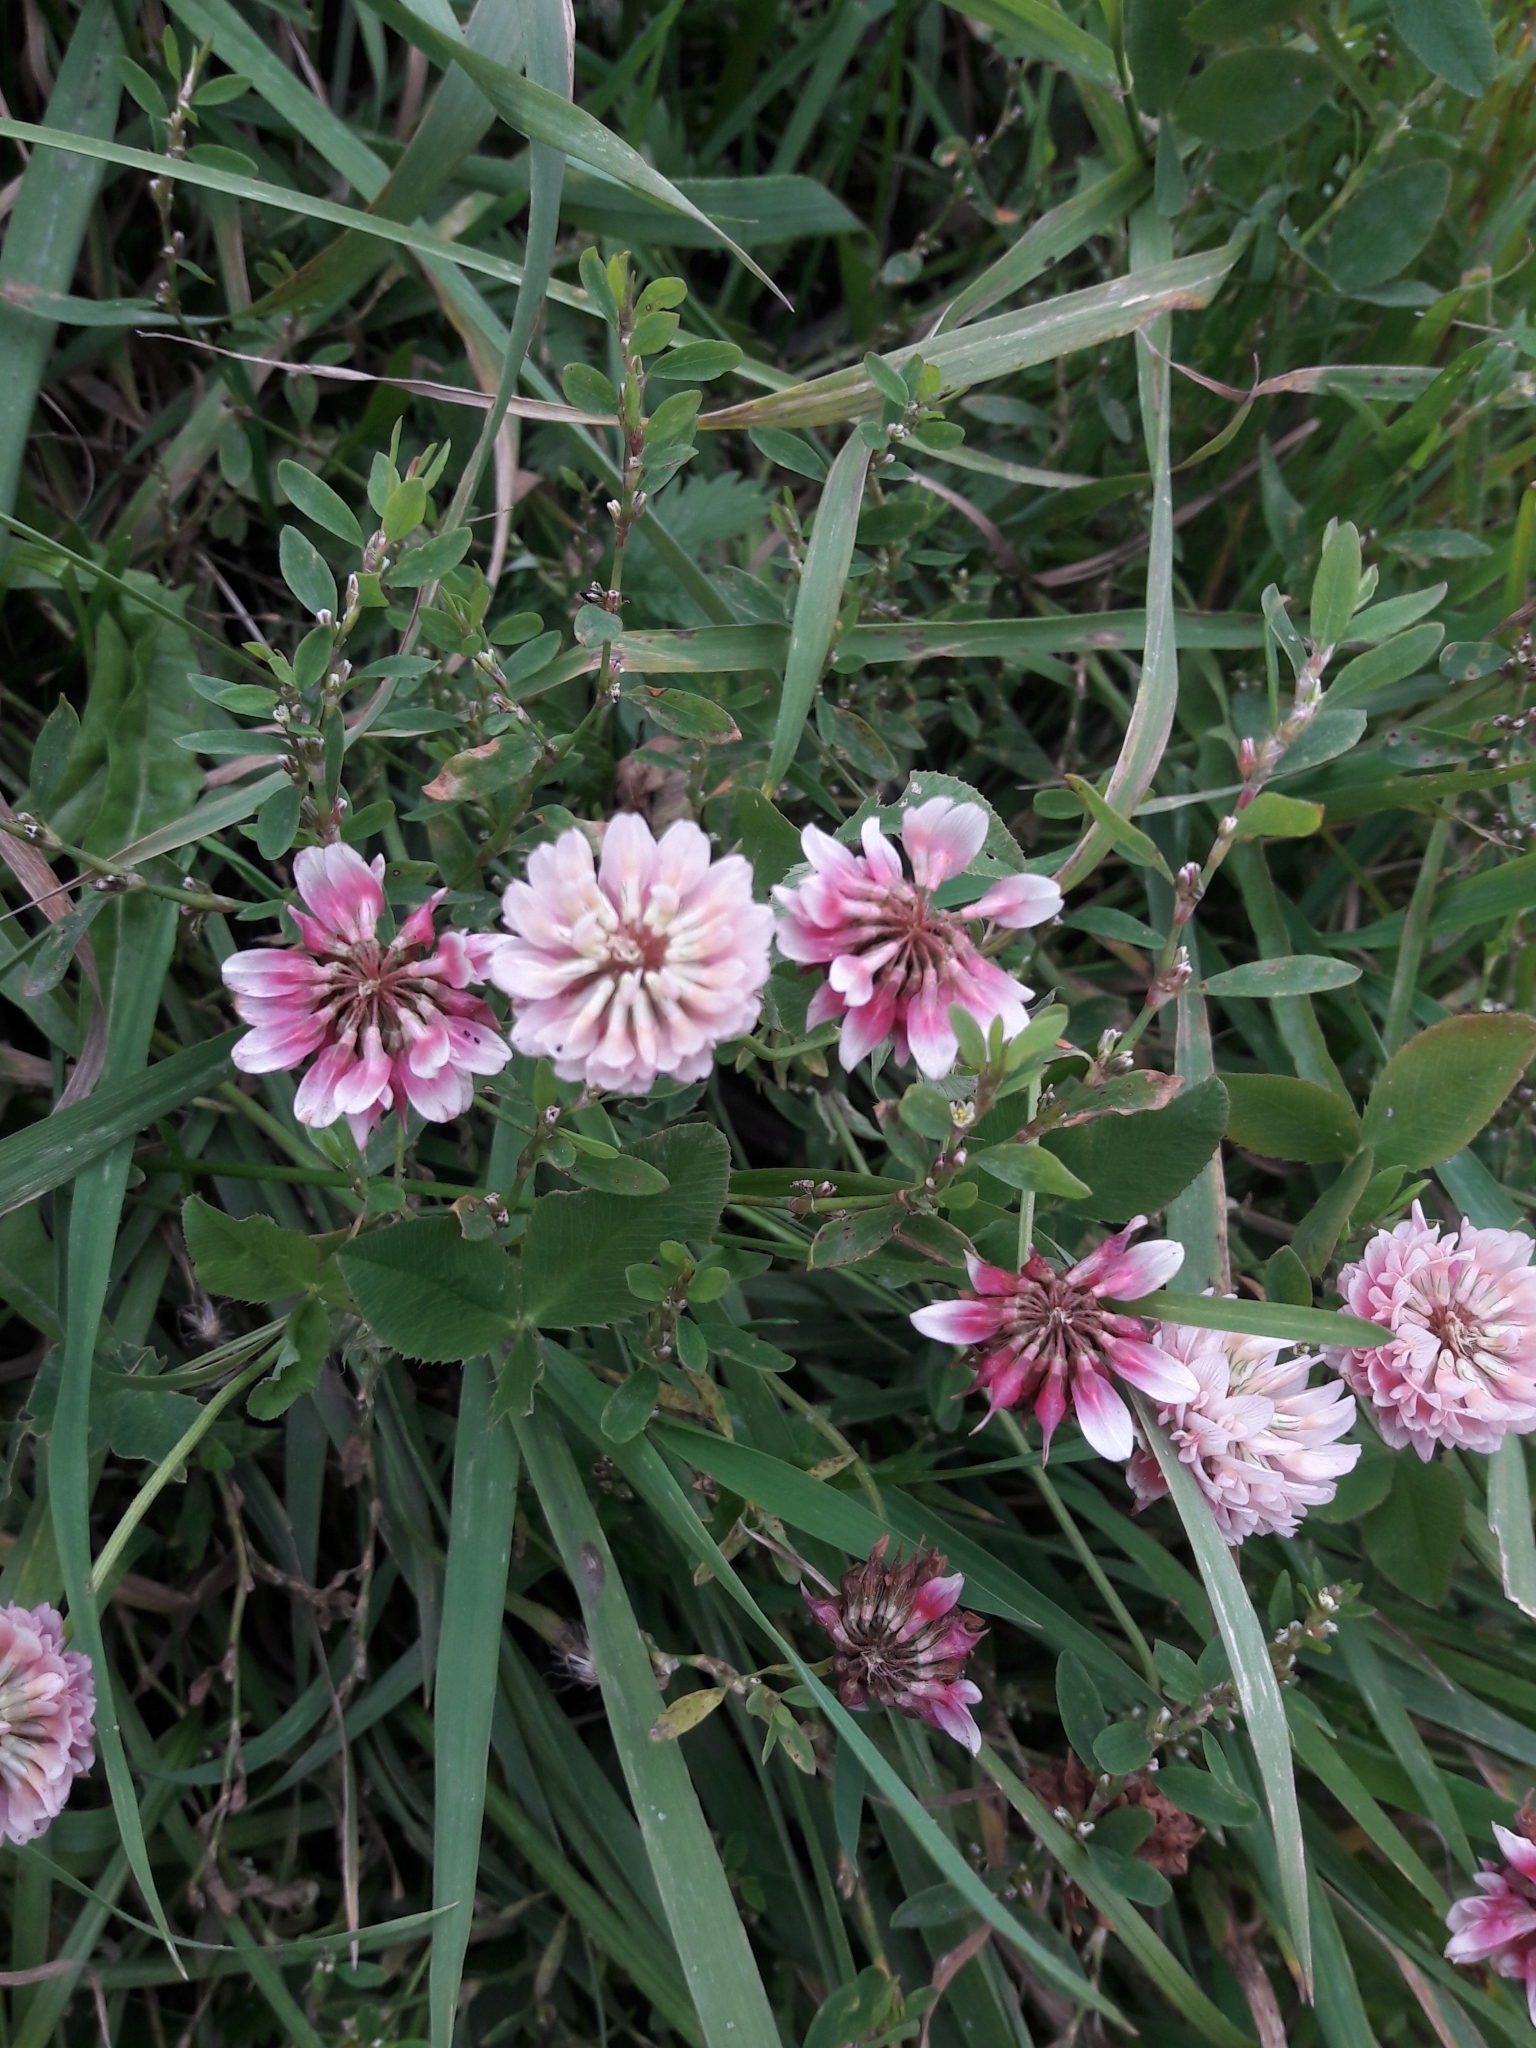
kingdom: Plantae
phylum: Tracheophyta
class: Magnoliopsida
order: Fabales
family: Fabaceae
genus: Trifolium
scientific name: Trifolium hybridum
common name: Alsike clover
